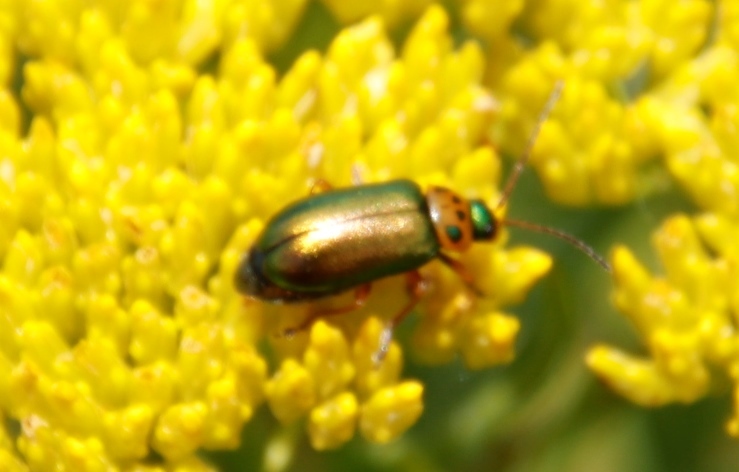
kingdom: Animalia
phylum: Arthropoda
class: Insecta
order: Coleoptera
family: Chrysomelidae
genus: Palaeophylia
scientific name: Palaeophylia
